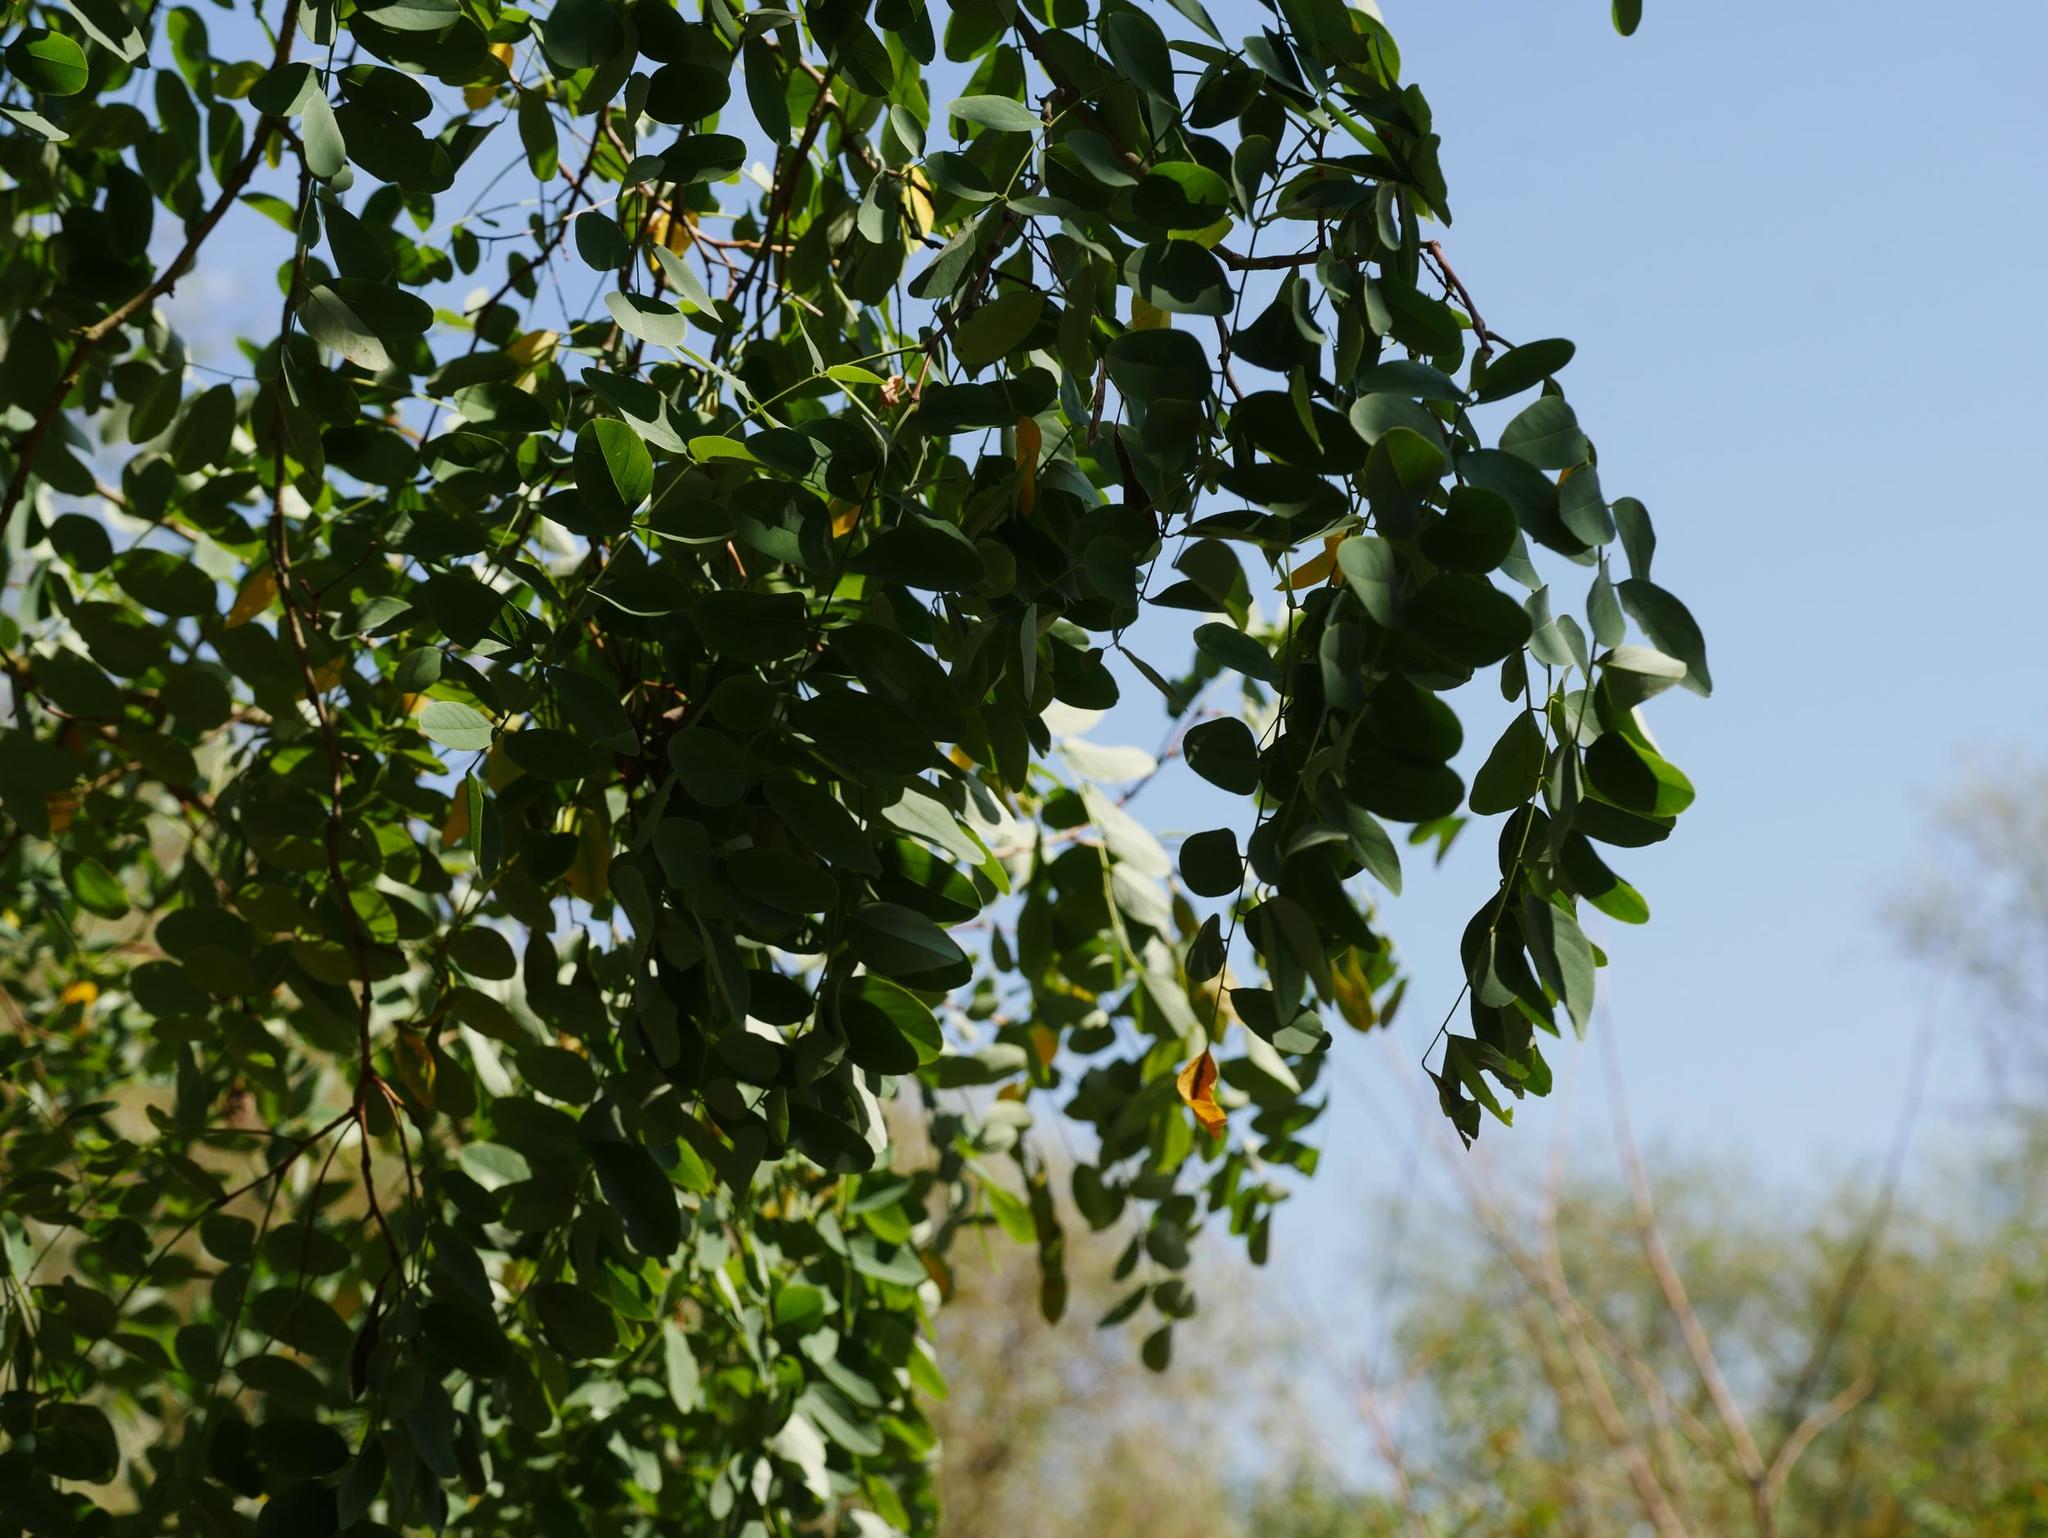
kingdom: Plantae
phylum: Tracheophyta
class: Magnoliopsida
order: Fabales
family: Fabaceae
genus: Robinia
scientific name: Robinia pseudoacacia
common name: Black locust
